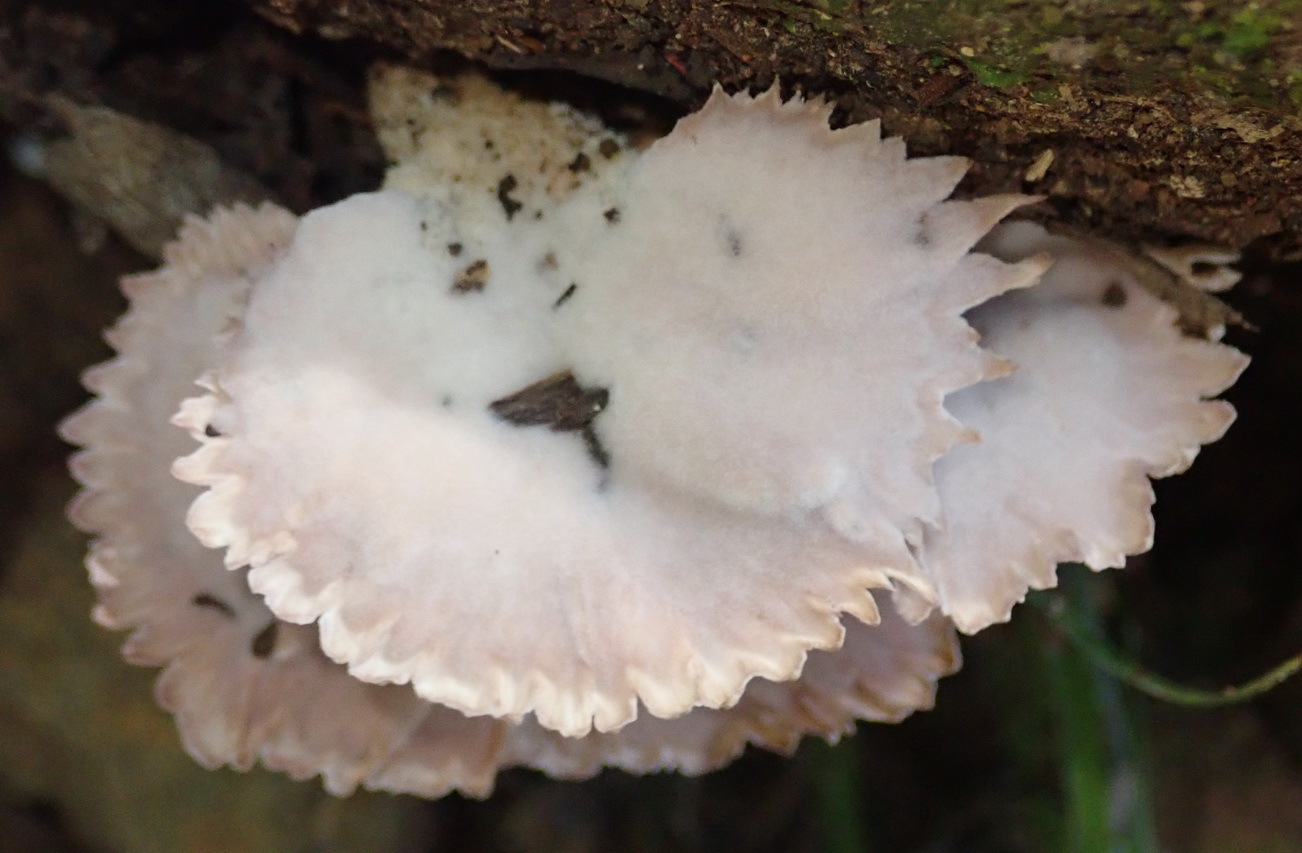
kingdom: Fungi
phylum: Basidiomycota
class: Agaricomycetes
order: Polyporales
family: Panaceae
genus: Cymatoderma
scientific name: Cymatoderma elegans
